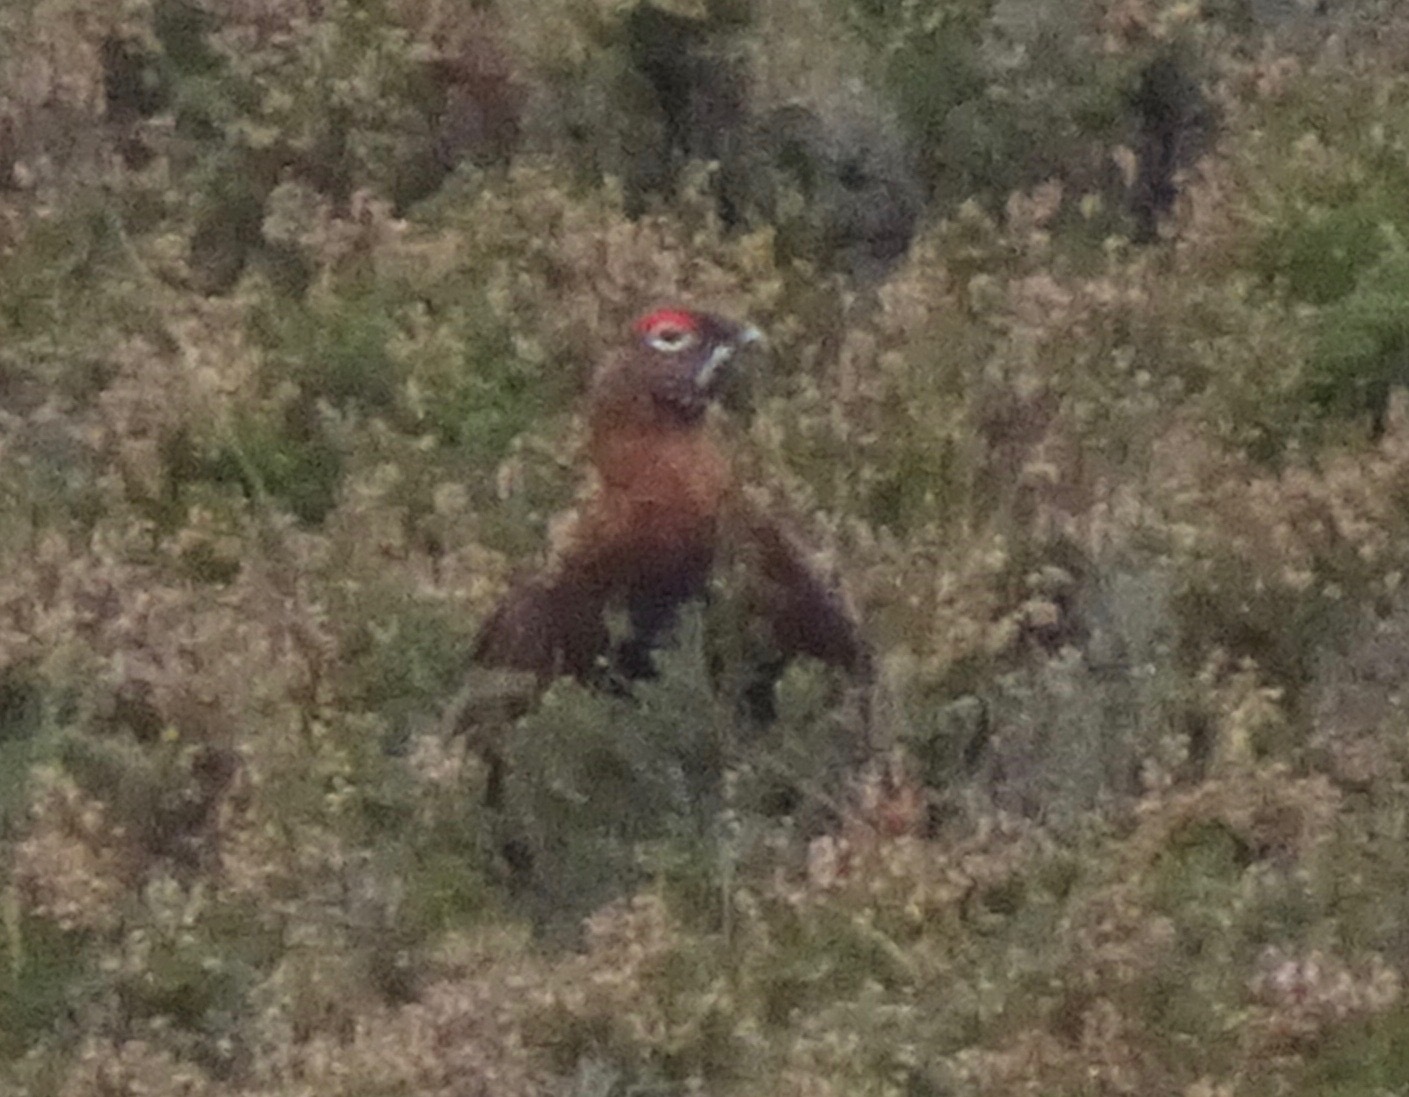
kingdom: Animalia
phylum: Chordata
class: Aves
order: Galliformes
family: Phasianidae
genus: Lagopus
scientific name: Lagopus lagopus
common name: Willow ptarmigan
